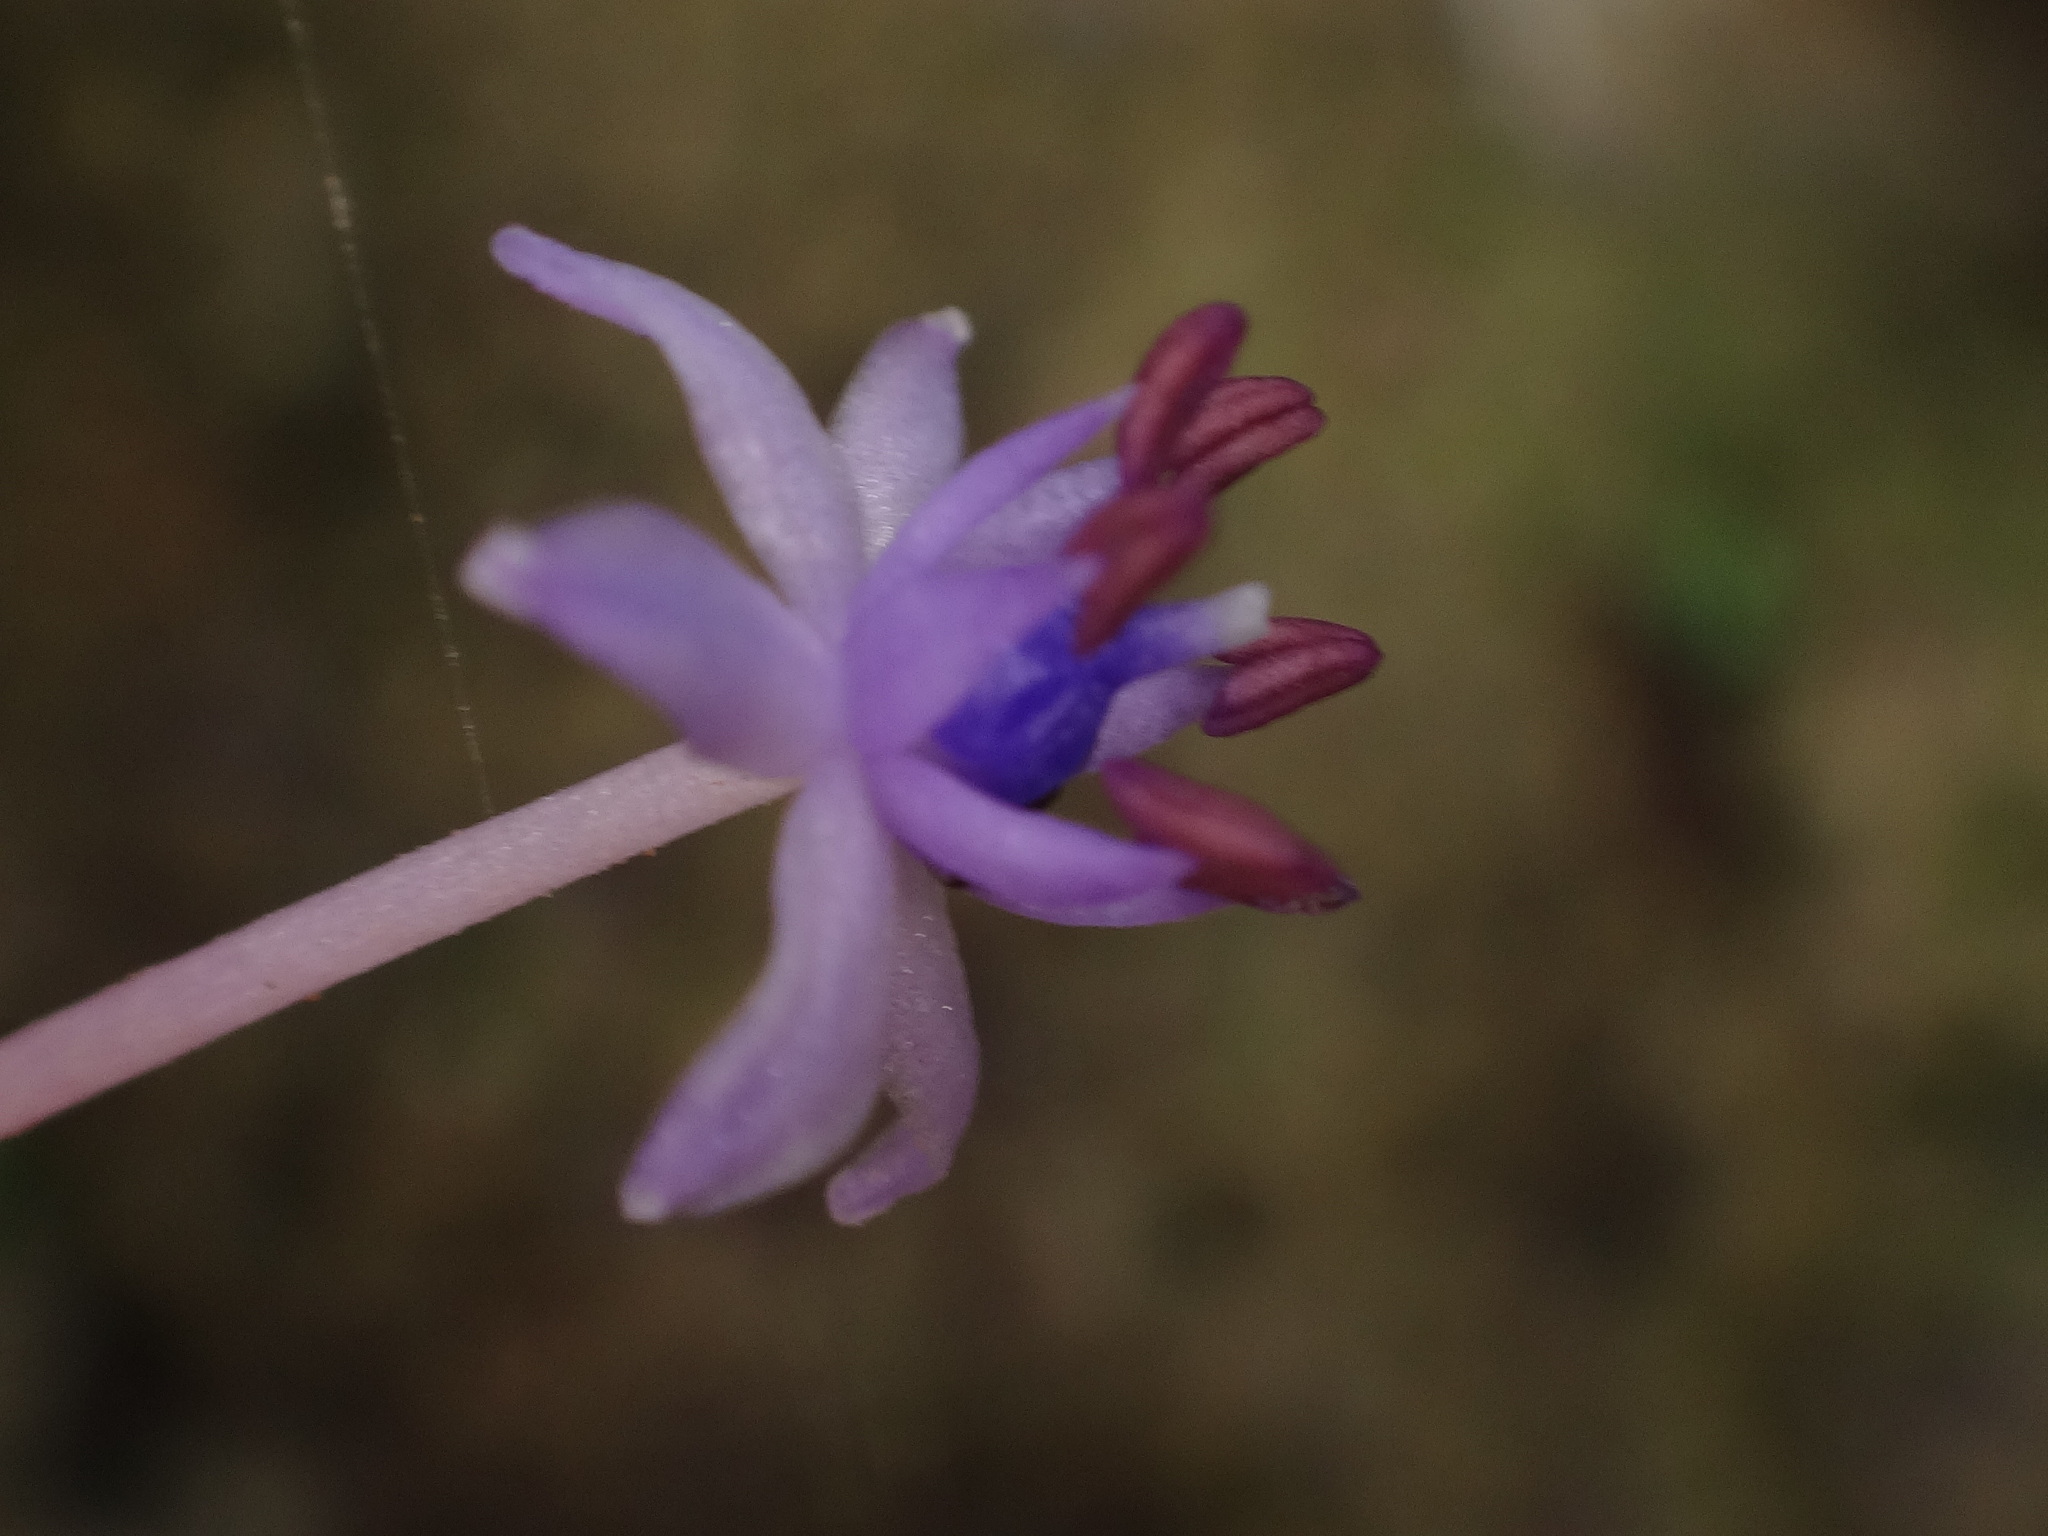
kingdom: Plantae
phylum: Tracheophyta
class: Liliopsida
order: Asparagales
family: Asparagaceae
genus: Scilla
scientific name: Scilla latifolia
